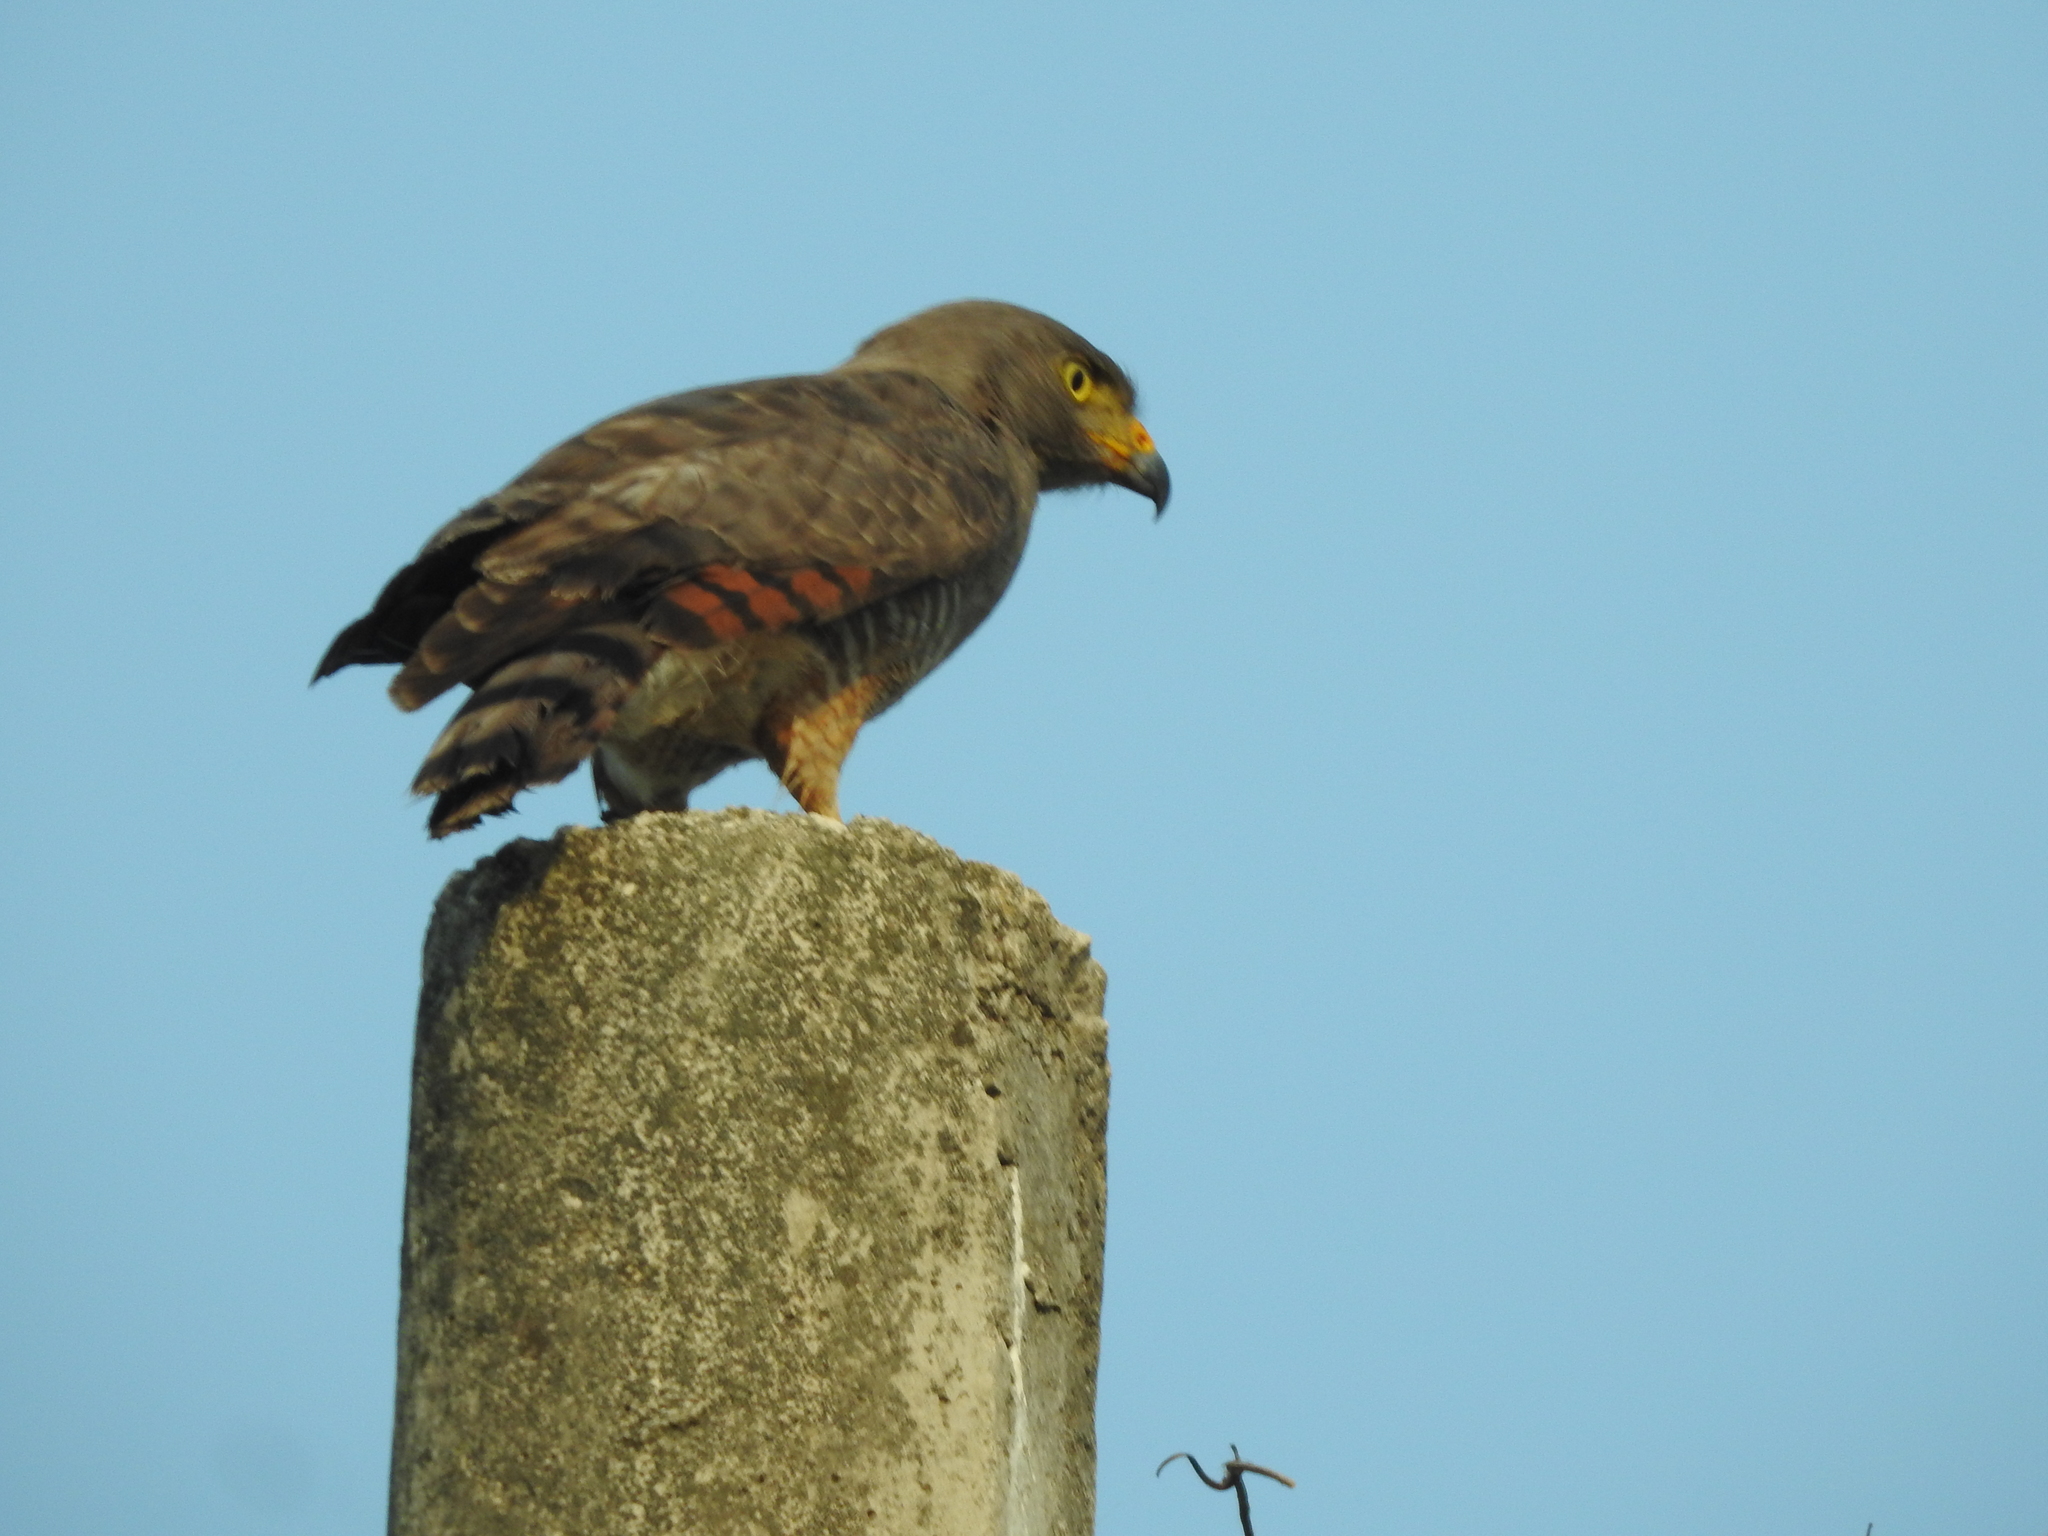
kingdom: Animalia
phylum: Chordata
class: Aves
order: Accipitriformes
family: Accipitridae
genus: Rupornis
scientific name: Rupornis magnirostris
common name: Roadside hawk
